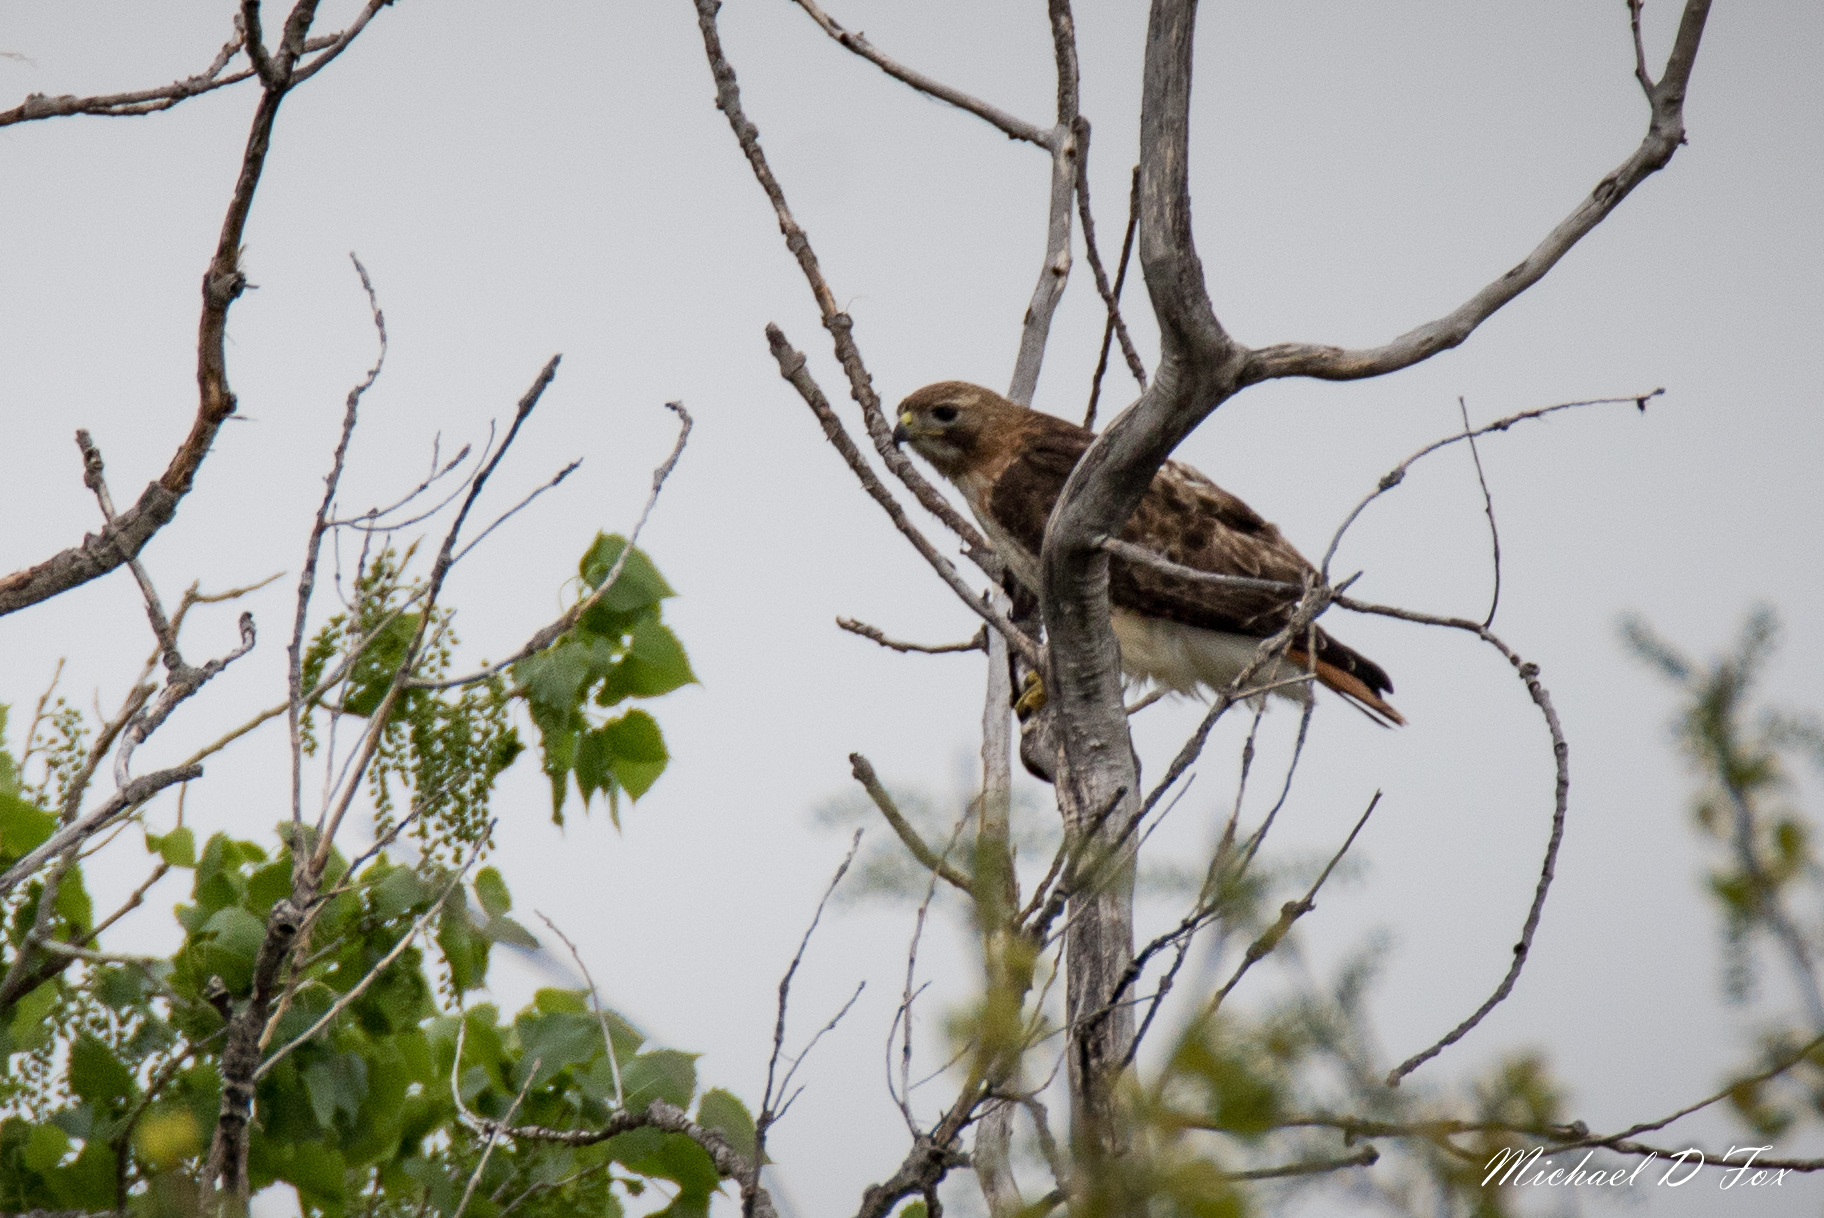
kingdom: Animalia
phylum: Chordata
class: Aves
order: Accipitriformes
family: Accipitridae
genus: Buteo
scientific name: Buteo jamaicensis
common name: Red-tailed hawk
